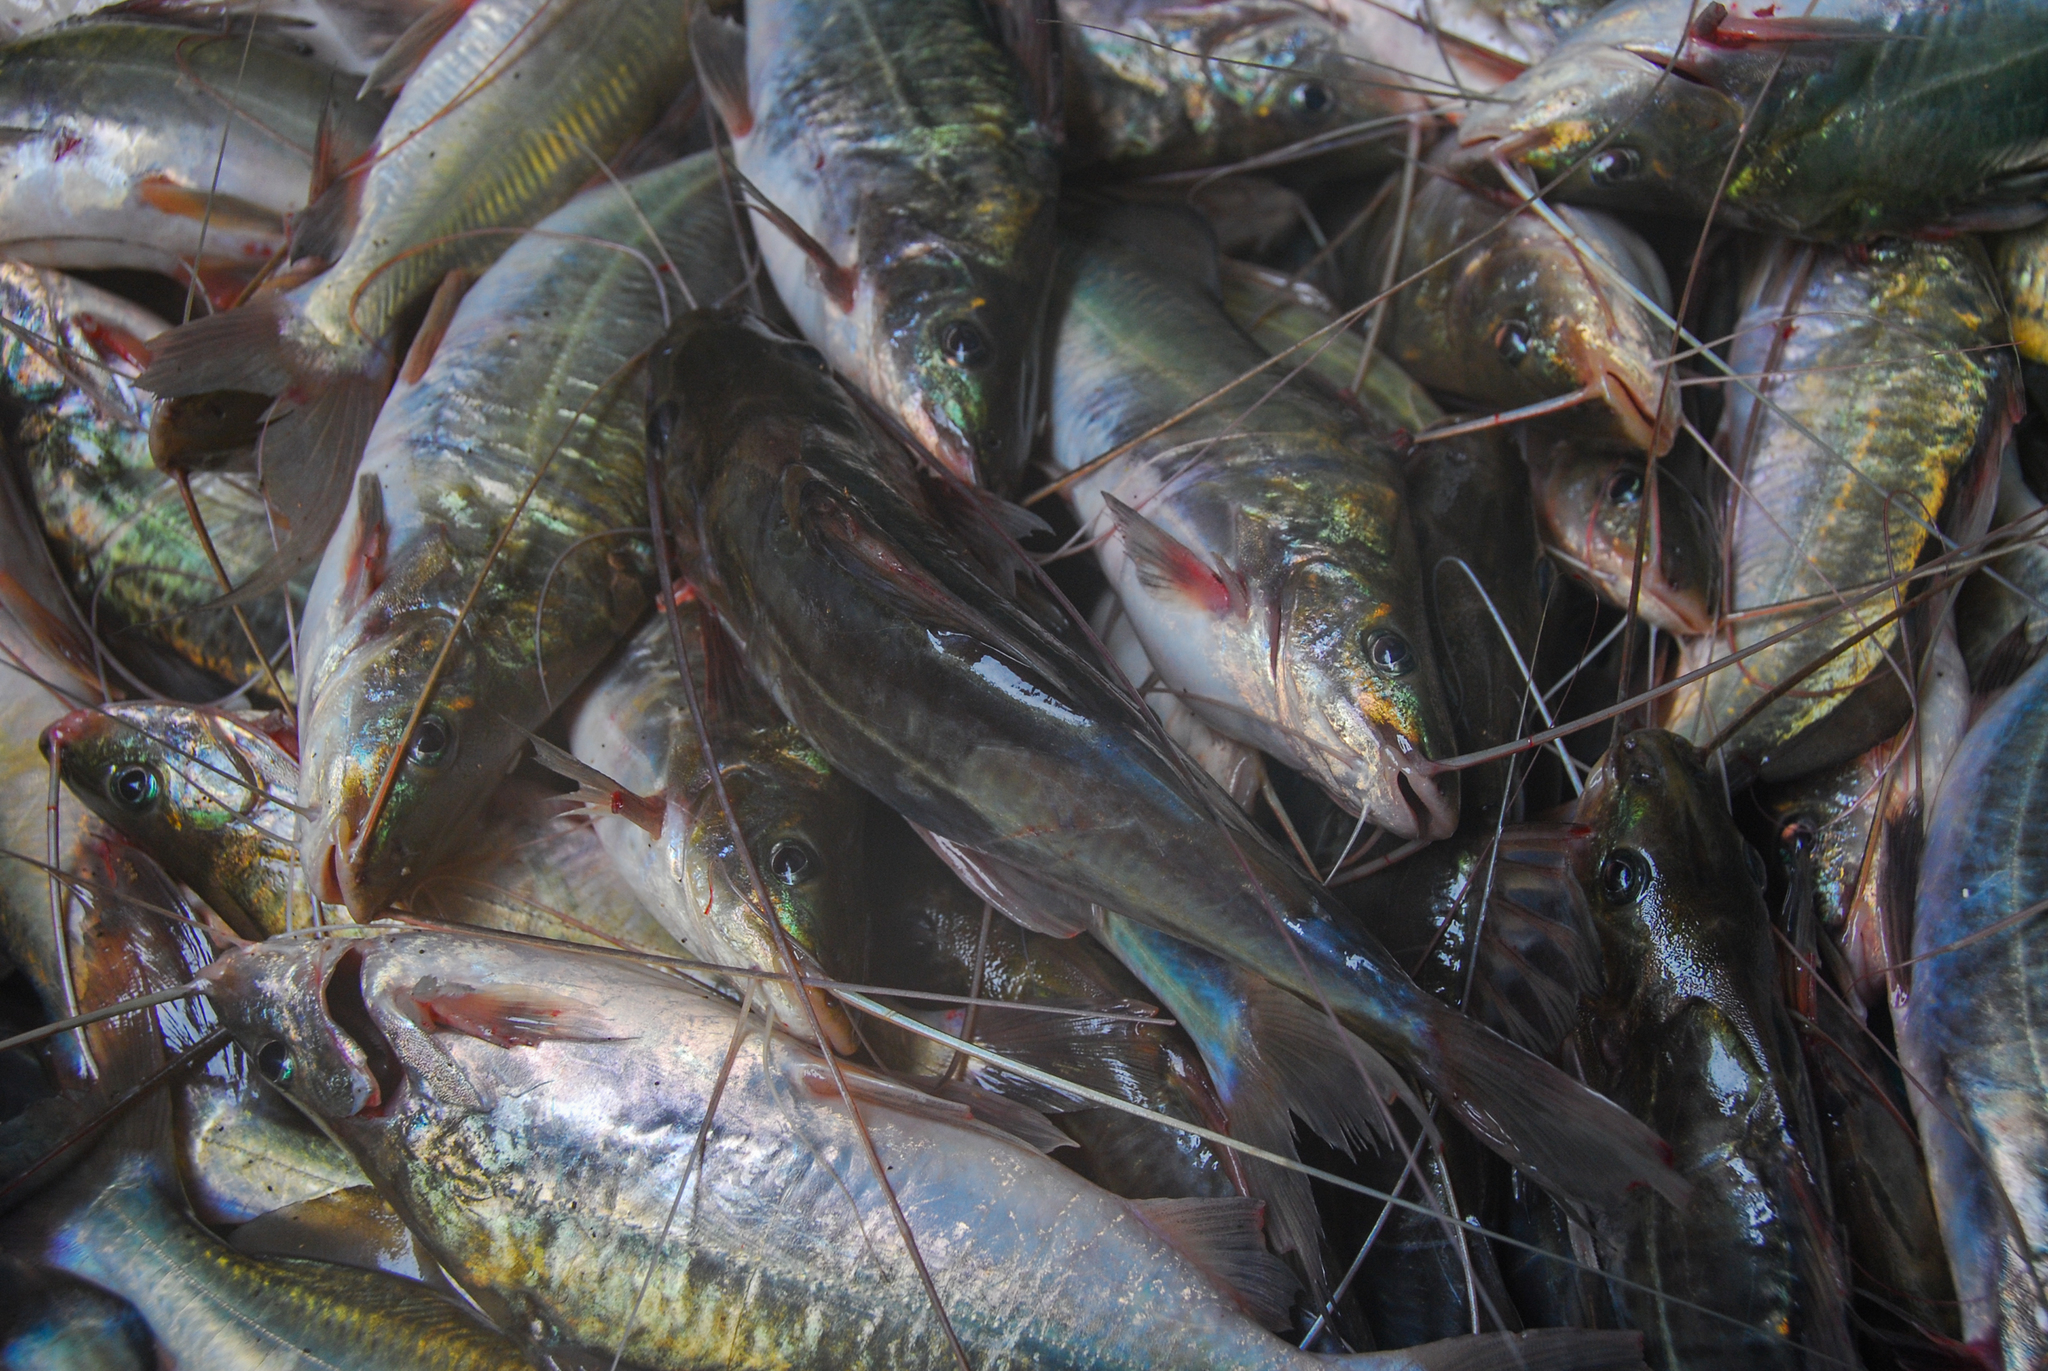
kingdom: Animalia
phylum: Chordata
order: Siluriformes
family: Pimelodidae
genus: Pimelodus
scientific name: Pimelodus blochii
